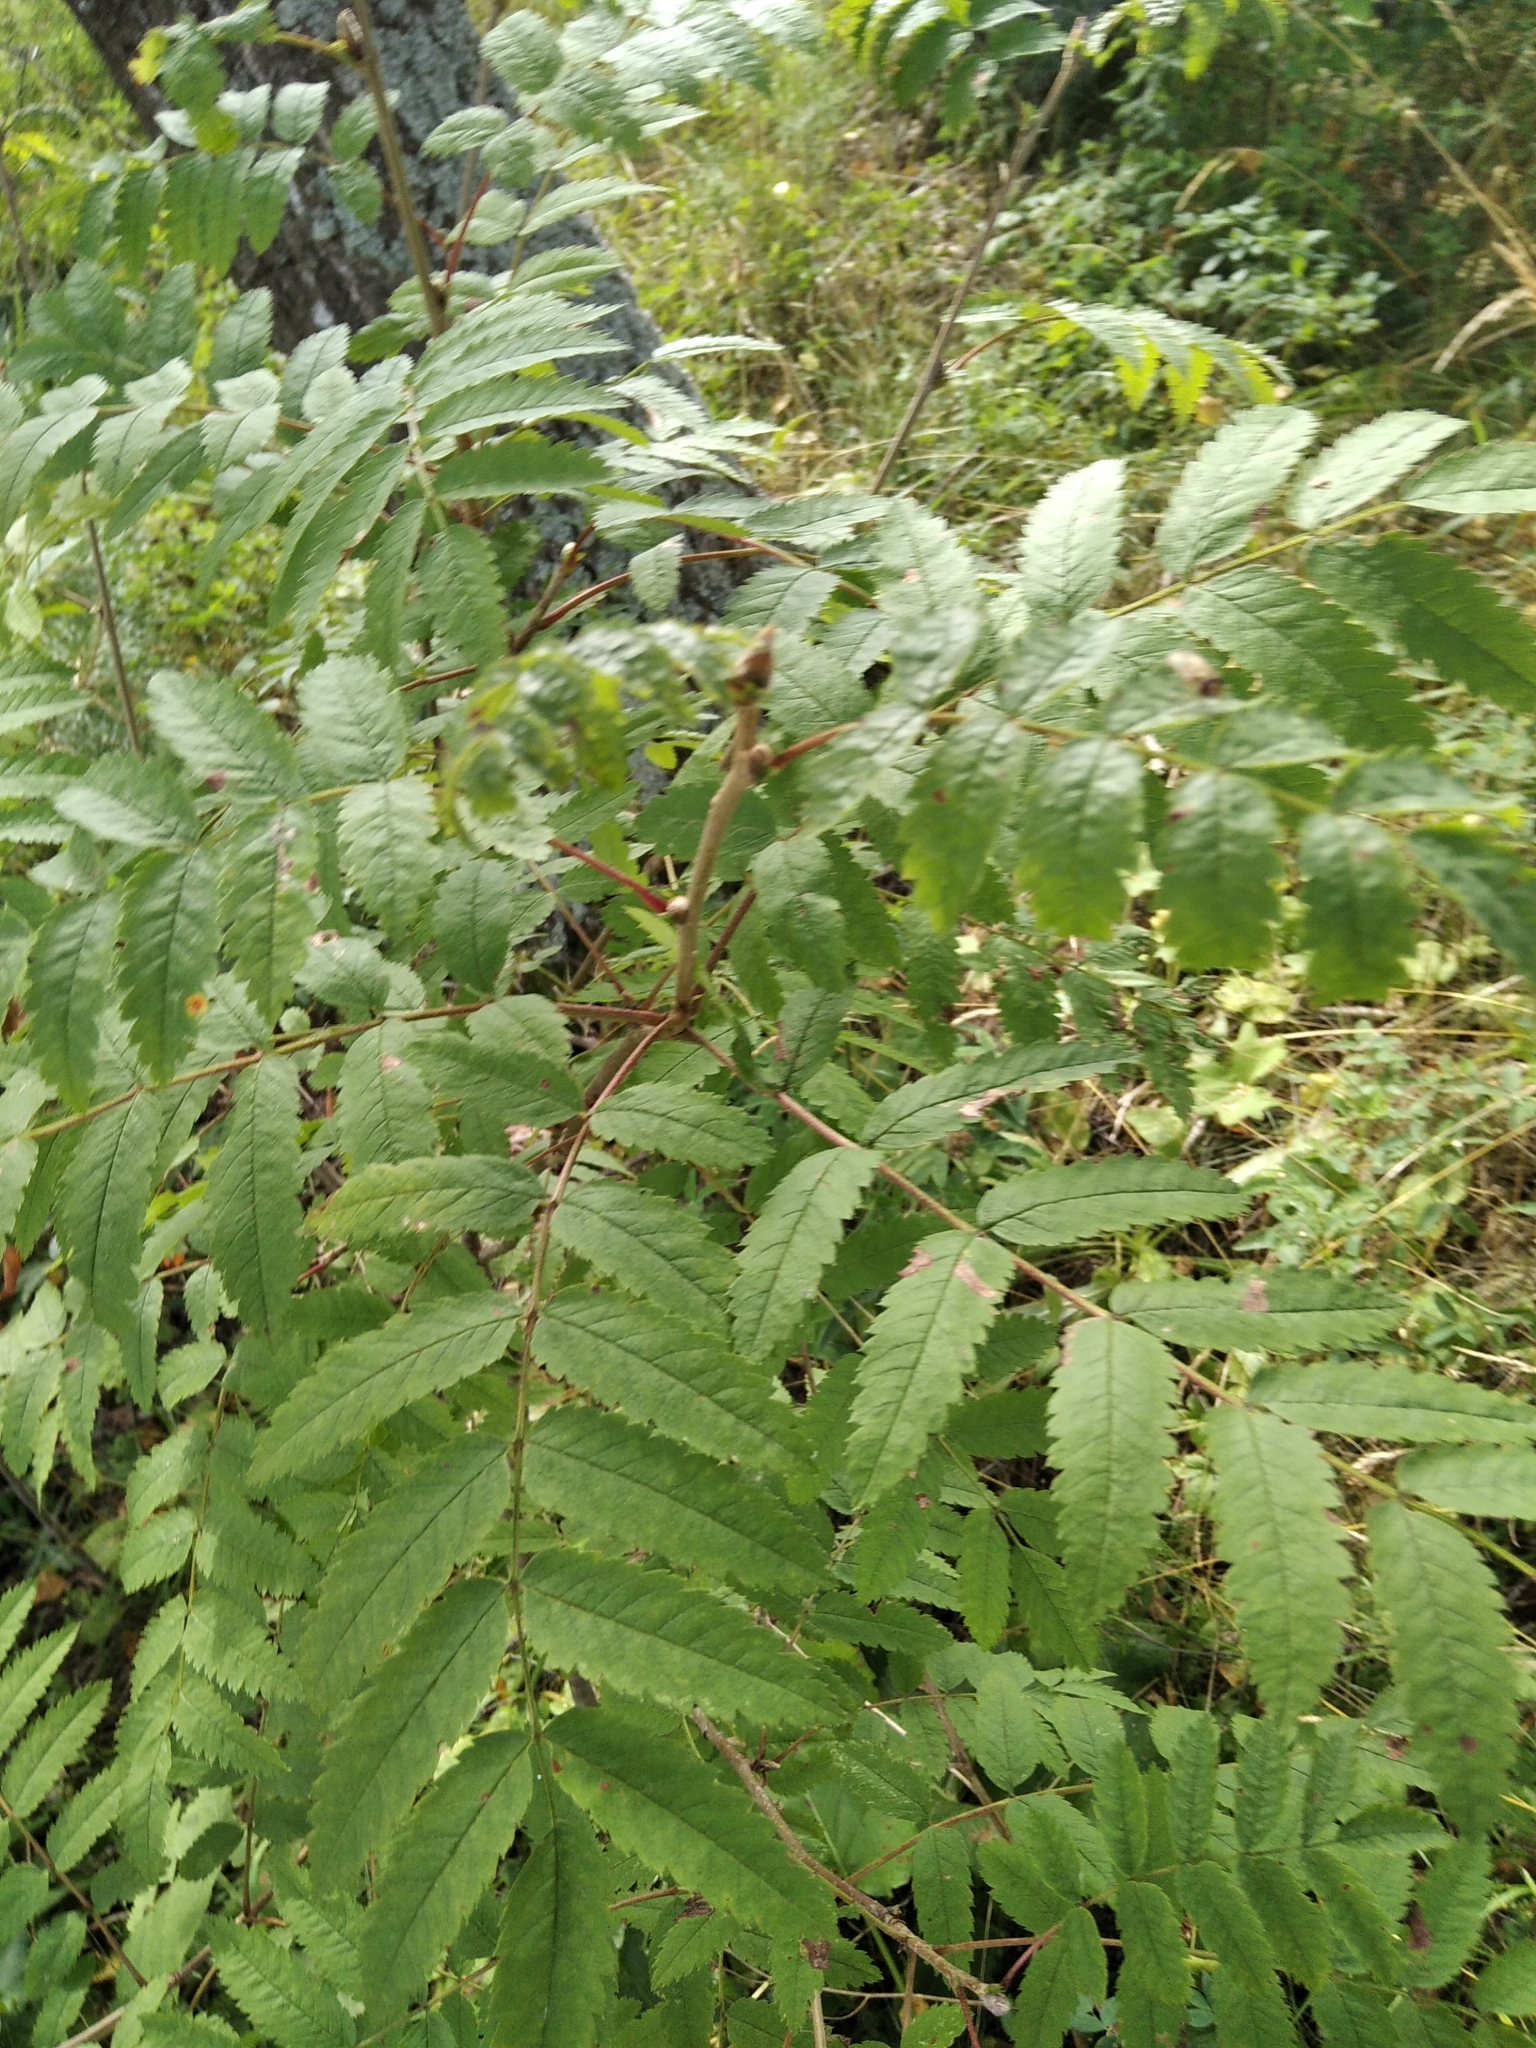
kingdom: Plantae
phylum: Tracheophyta
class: Magnoliopsida
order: Rosales
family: Rosaceae
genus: Sorbus
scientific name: Sorbus aucuparia
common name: Rowan
